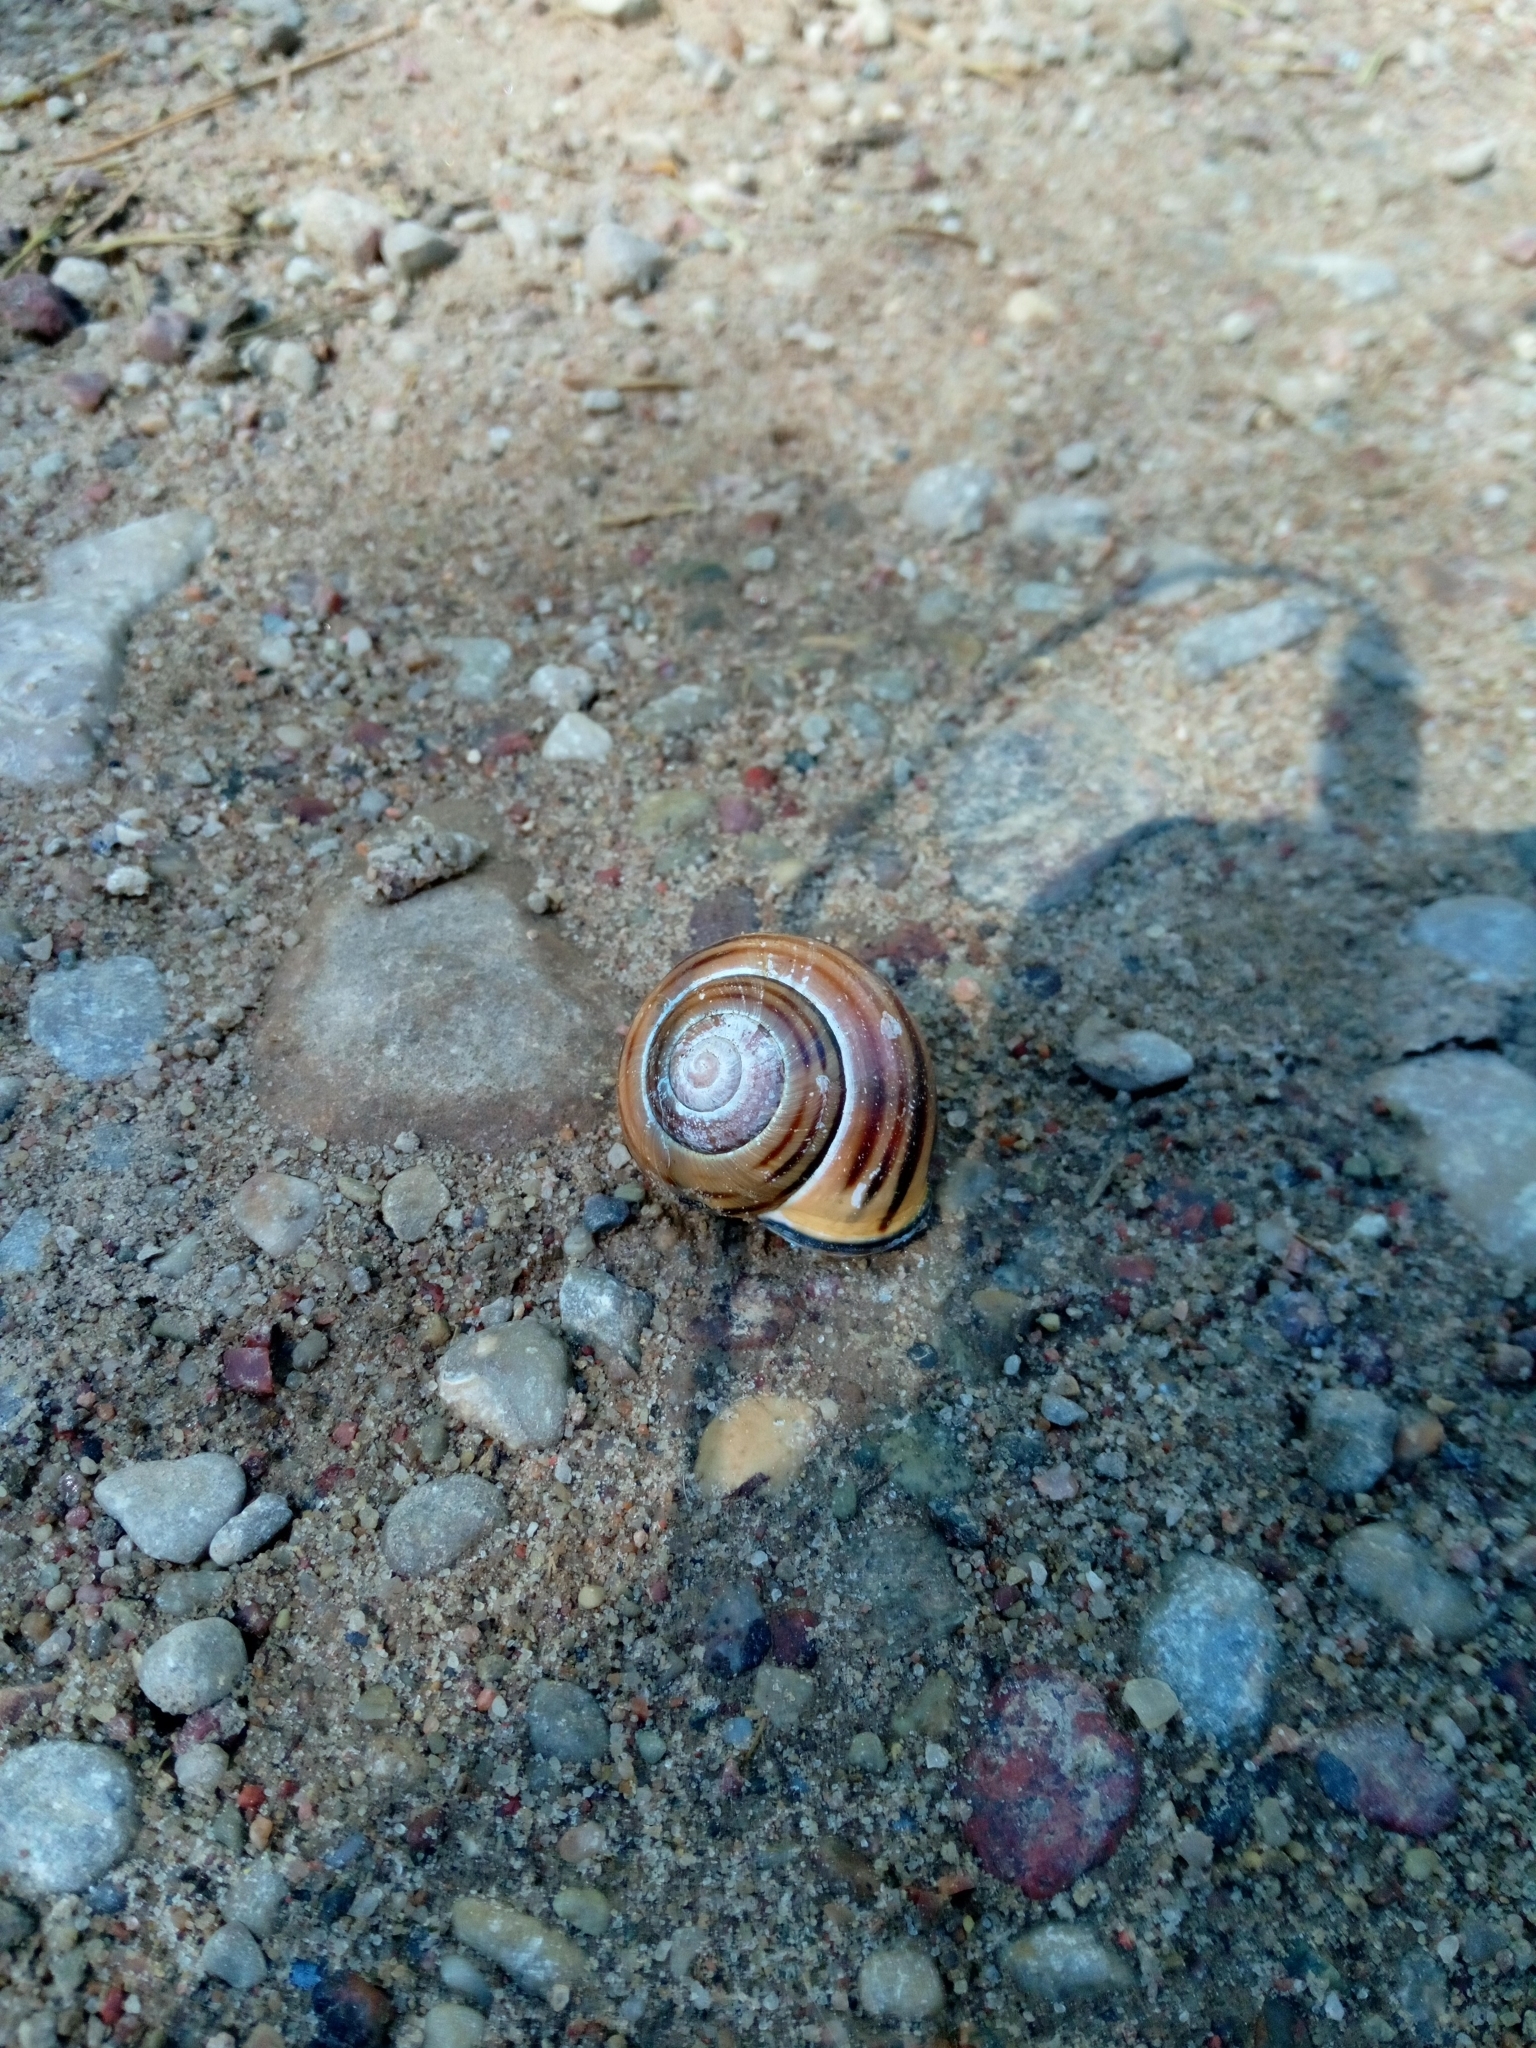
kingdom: Animalia
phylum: Mollusca
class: Gastropoda
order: Stylommatophora
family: Helicidae
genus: Cepaea
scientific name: Cepaea nemoralis
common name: Grovesnail
